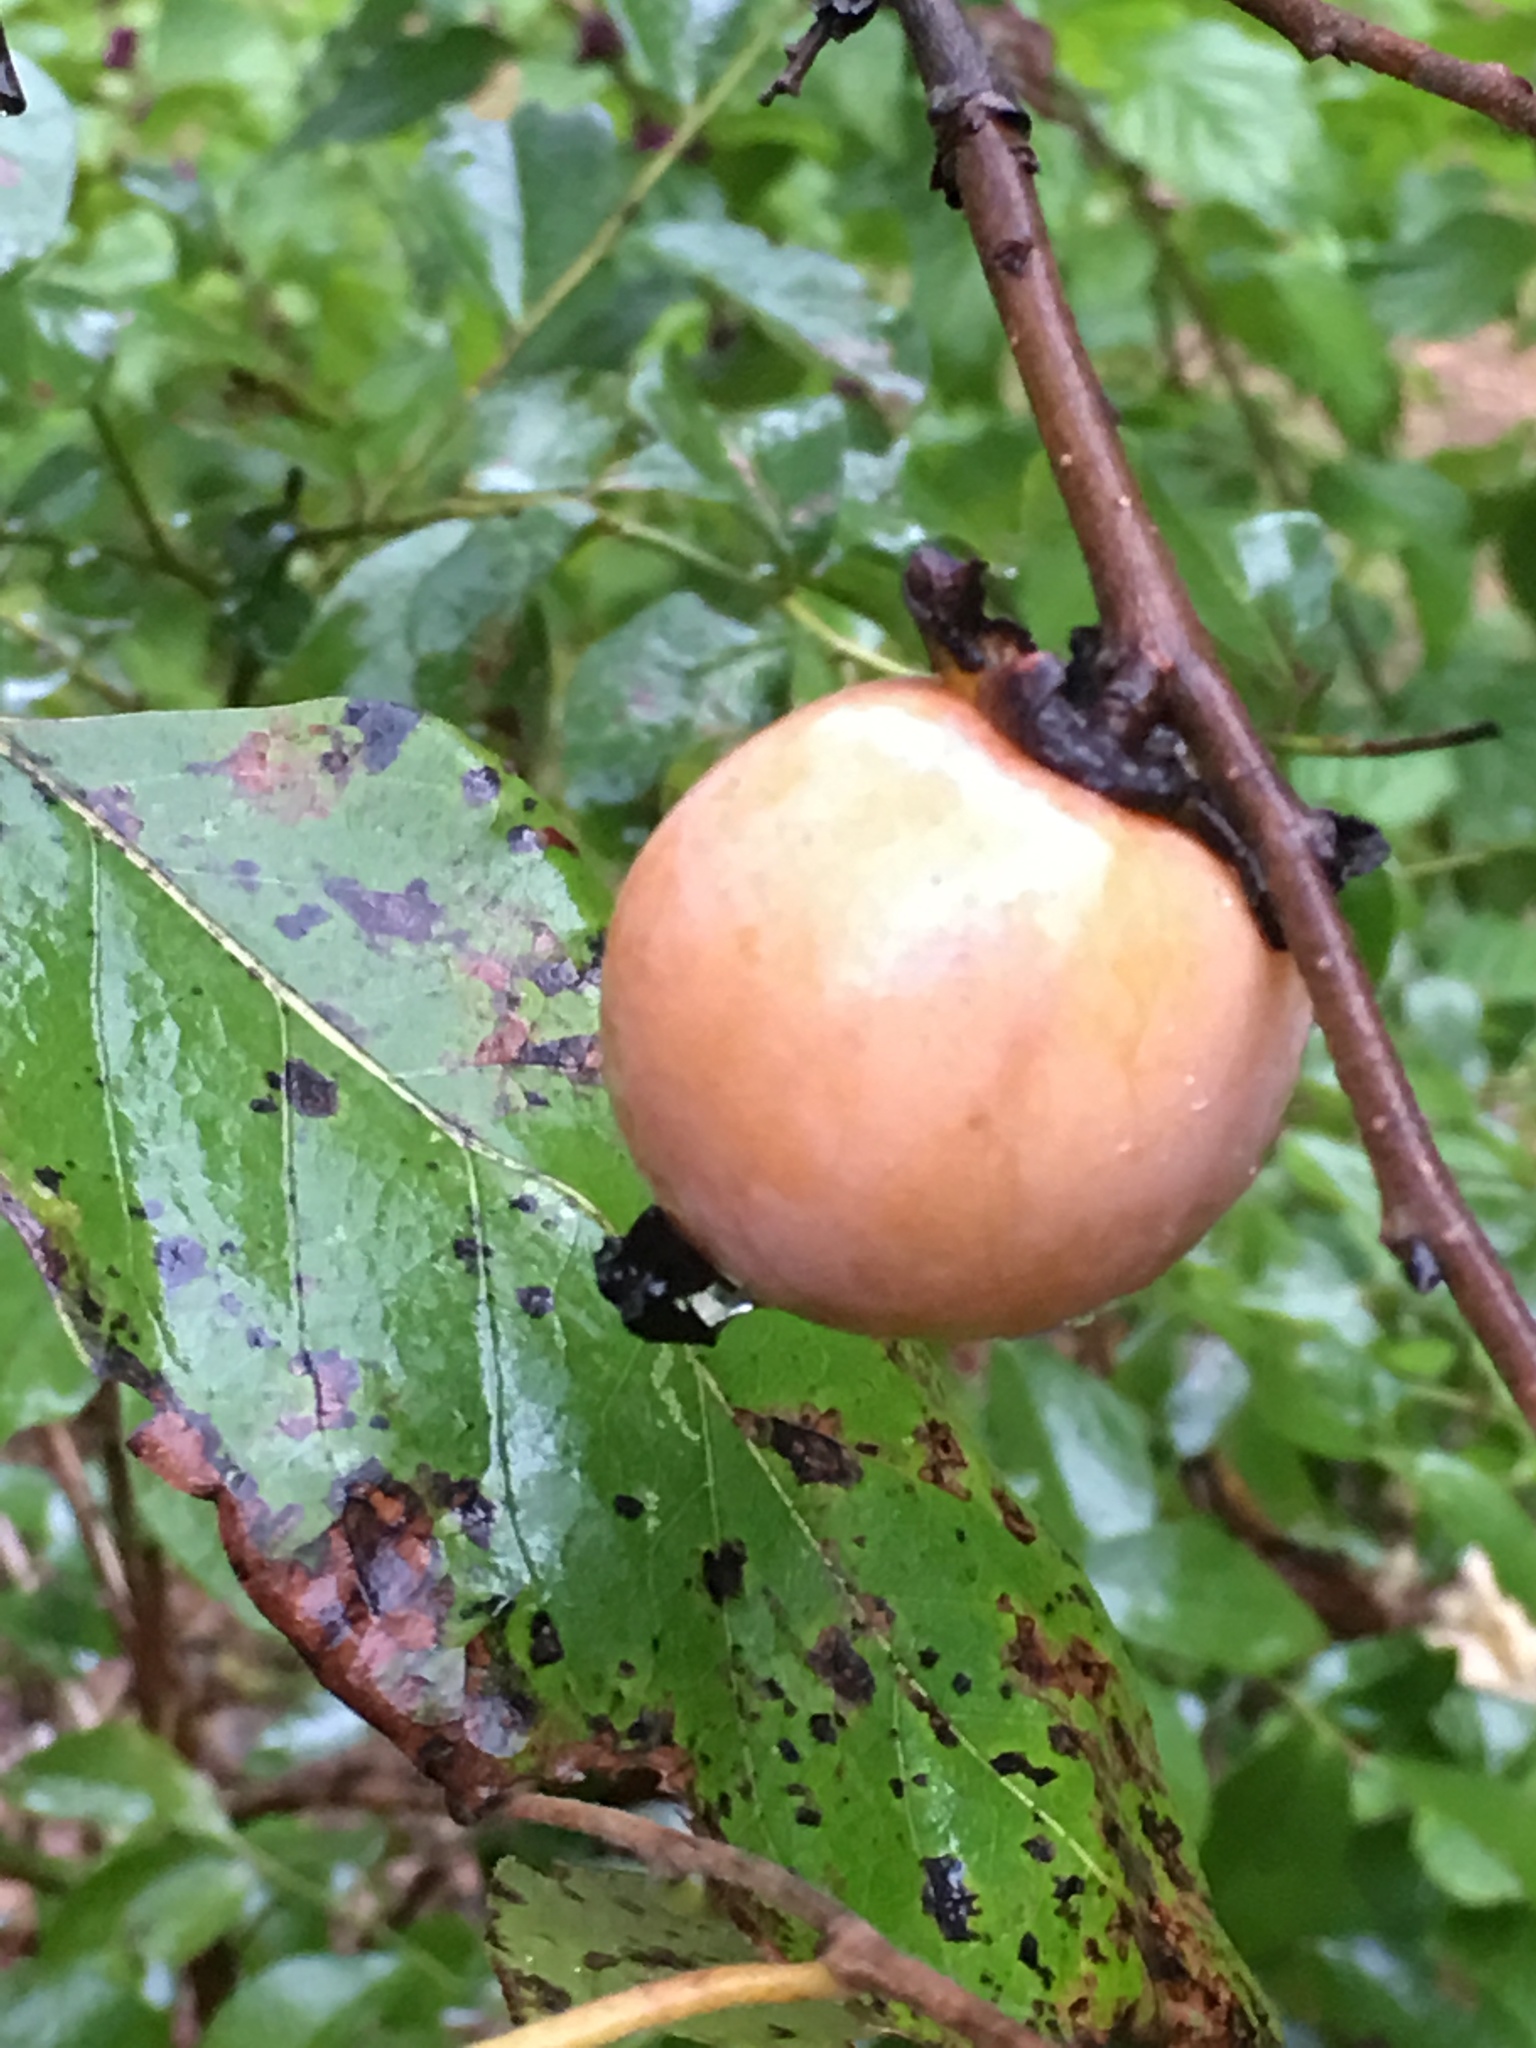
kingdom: Plantae
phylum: Tracheophyta
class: Magnoliopsida
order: Ericales
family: Ebenaceae
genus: Diospyros
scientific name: Diospyros virginiana
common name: Persimmon
